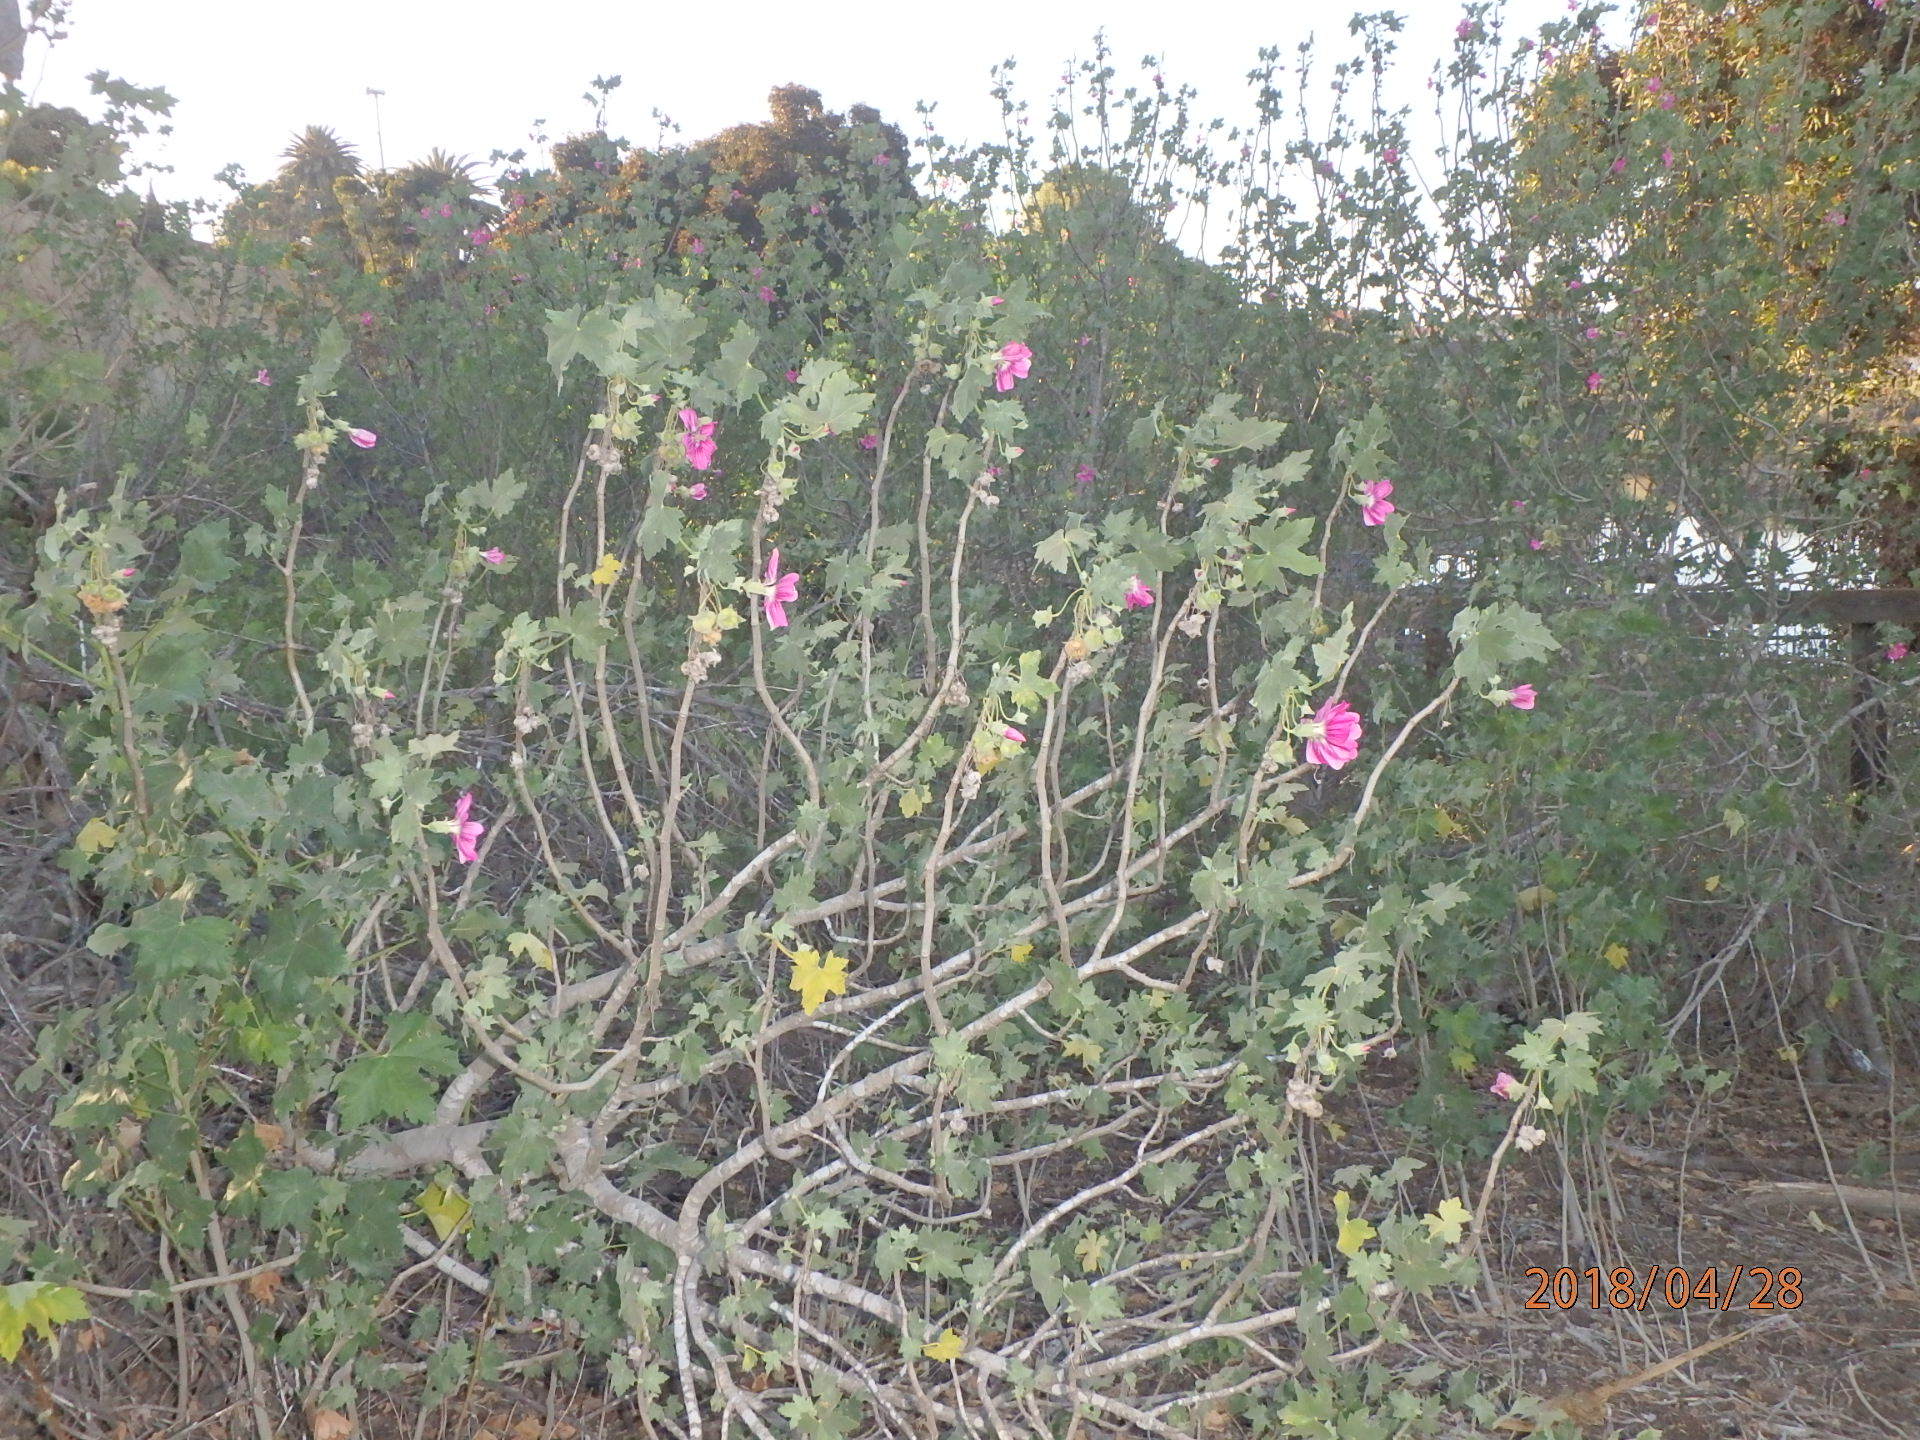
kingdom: Plantae
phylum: Tracheophyta
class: Magnoliopsida
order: Malvales
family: Malvaceae
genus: Malva
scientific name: Malva assurgentiflora
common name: Island mallow
